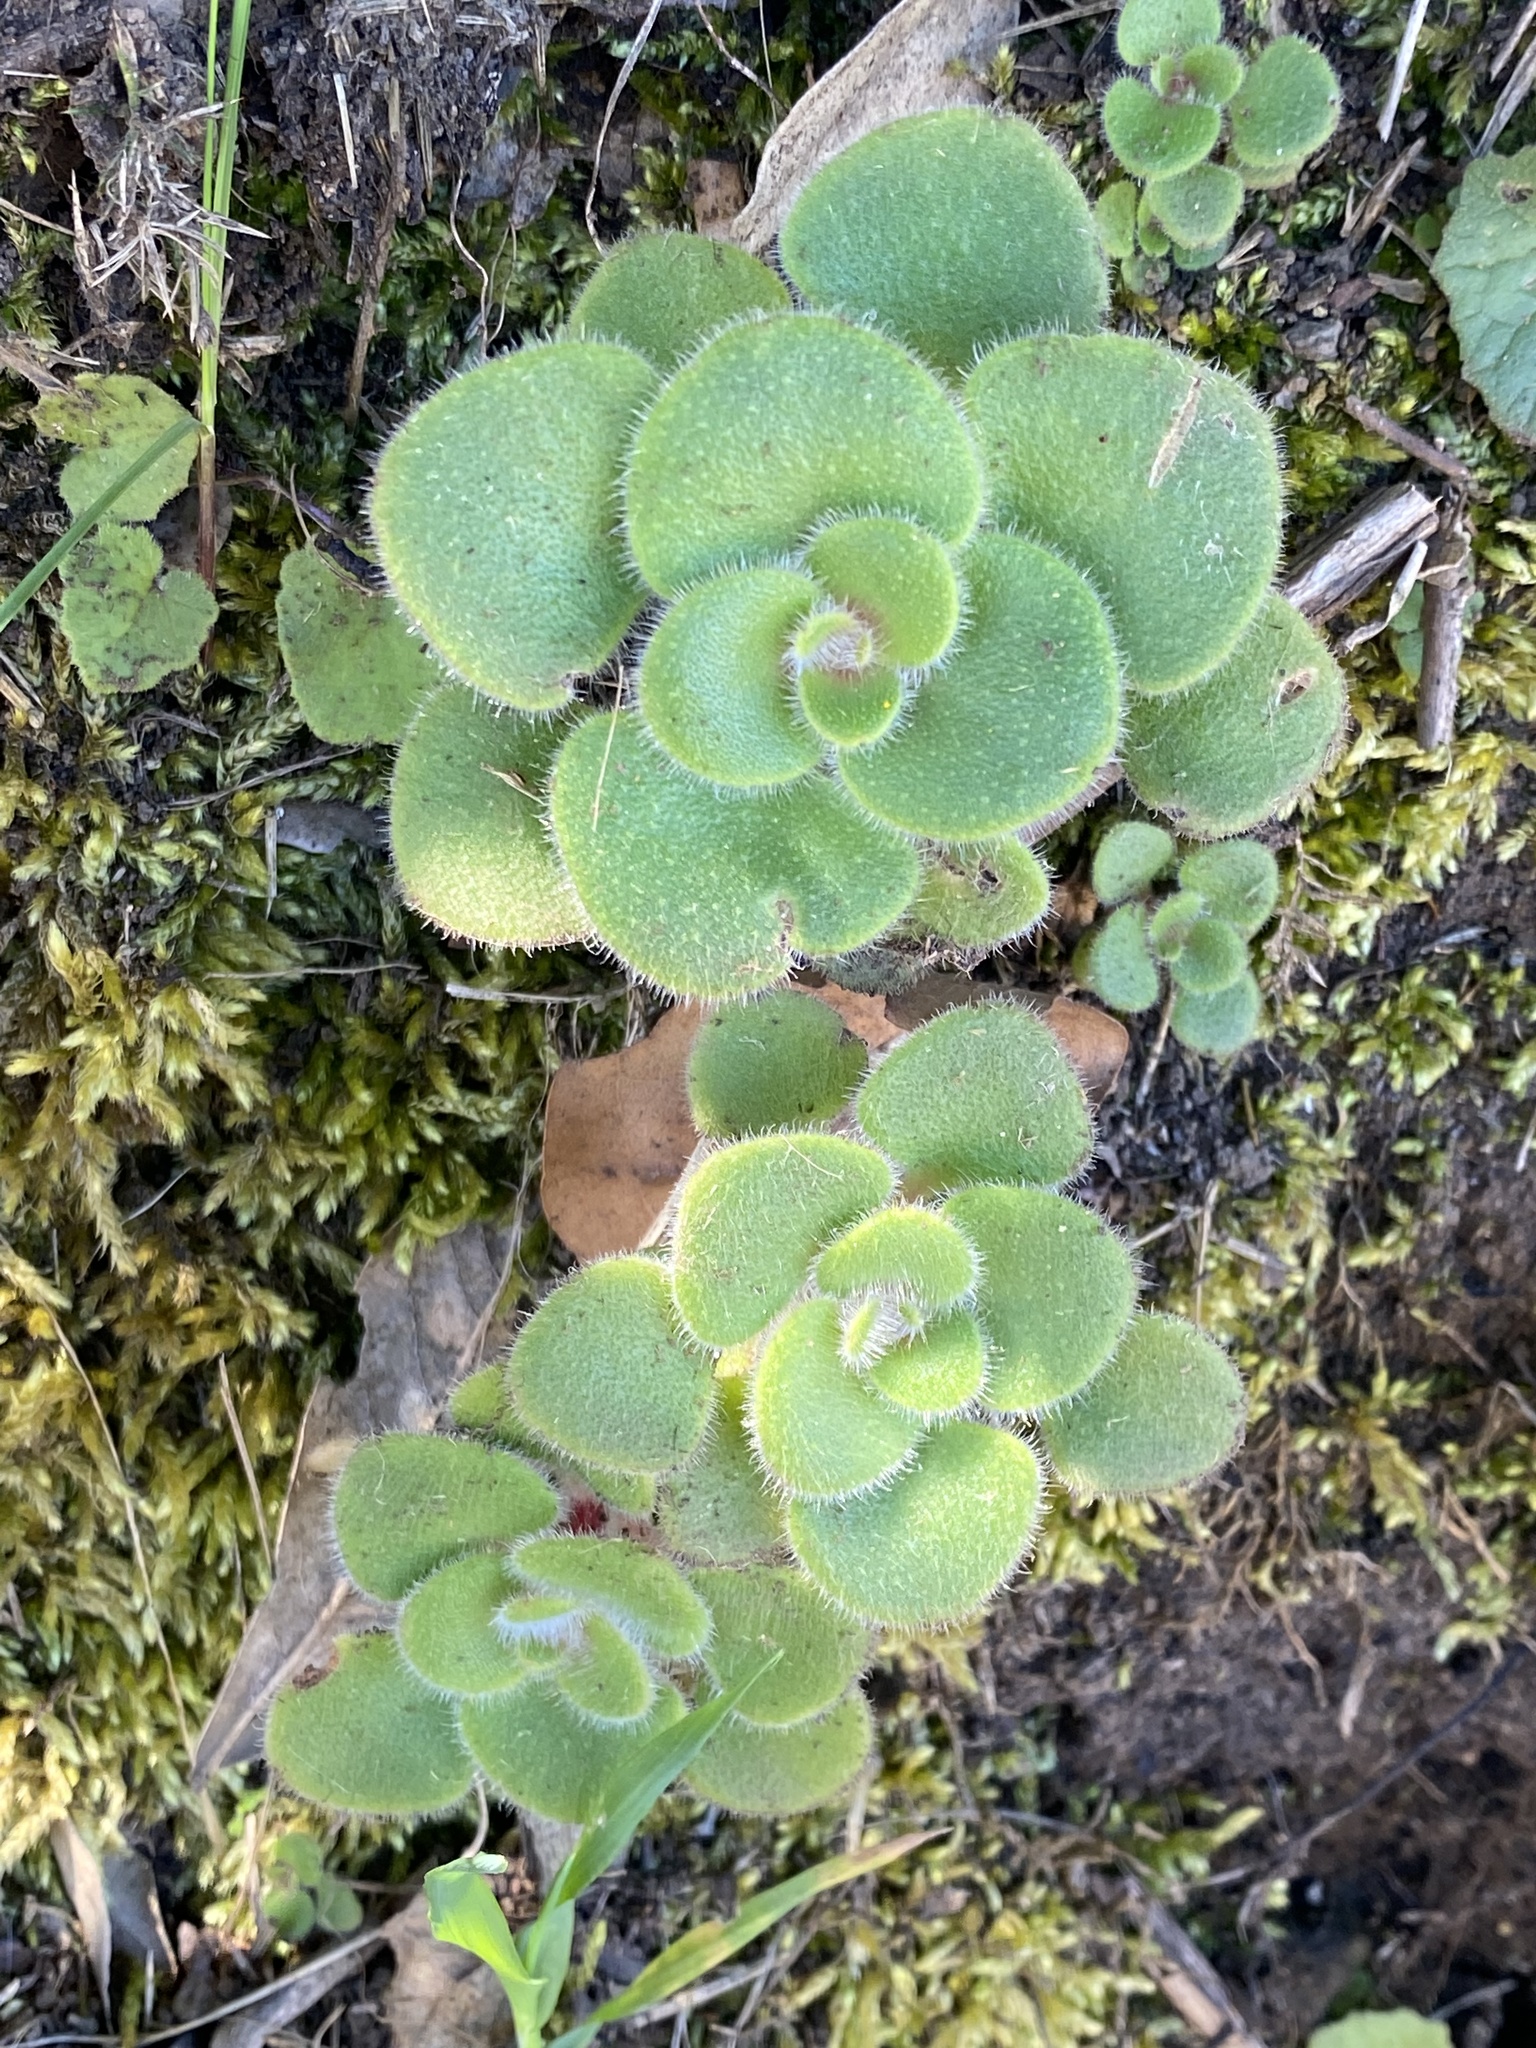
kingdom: Plantae
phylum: Tracheophyta
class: Magnoliopsida
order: Saxifragales
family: Crassulaceae
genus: Aichryson
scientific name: Aichryson laxum
